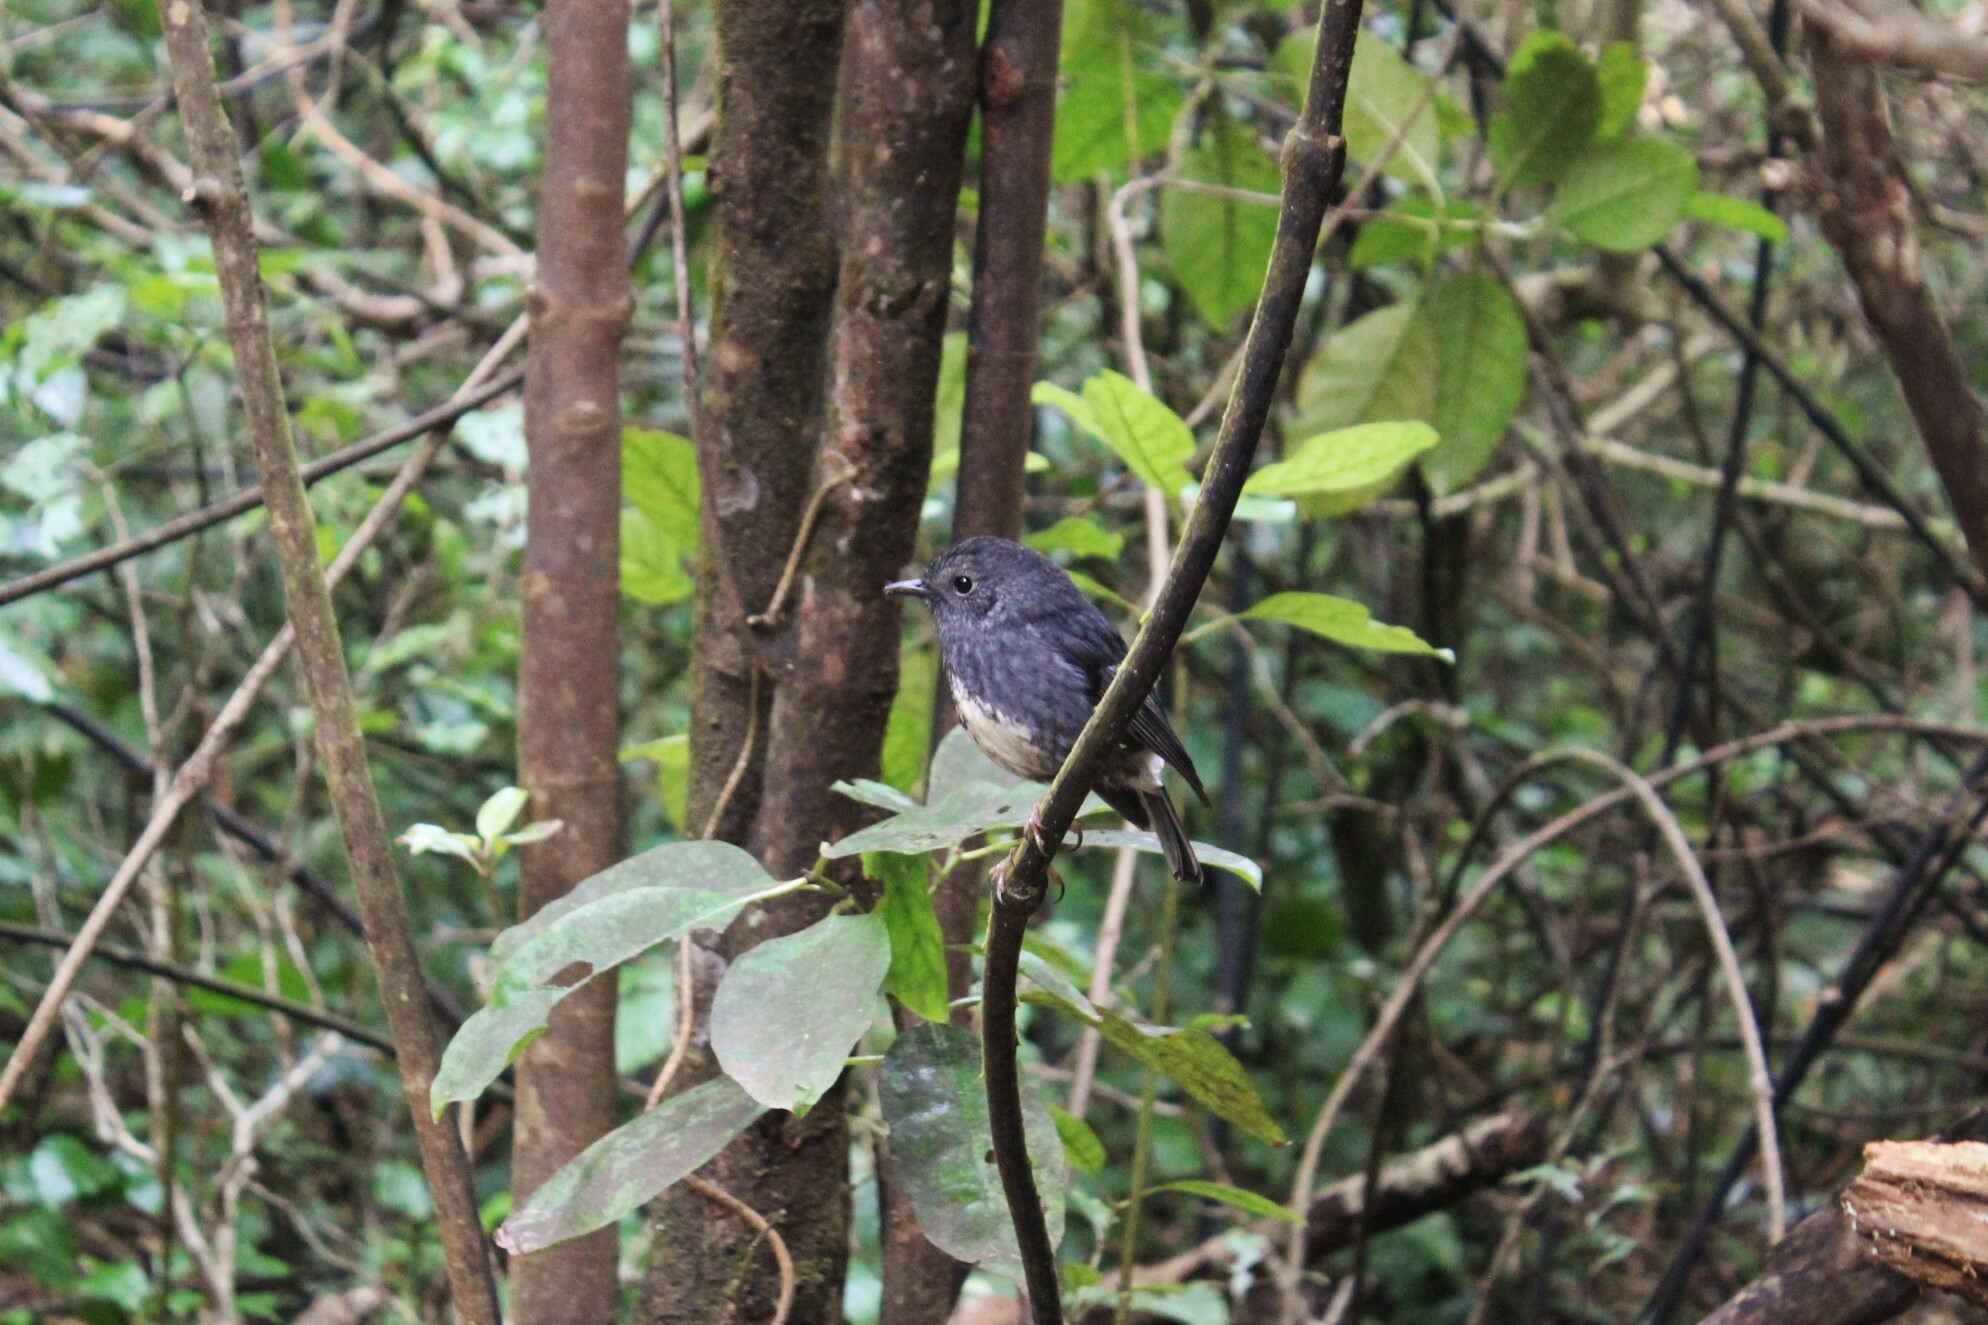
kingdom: Animalia
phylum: Chordata
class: Aves
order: Passeriformes
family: Petroicidae
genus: Petroica
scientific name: Petroica australis
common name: New zealand robin
